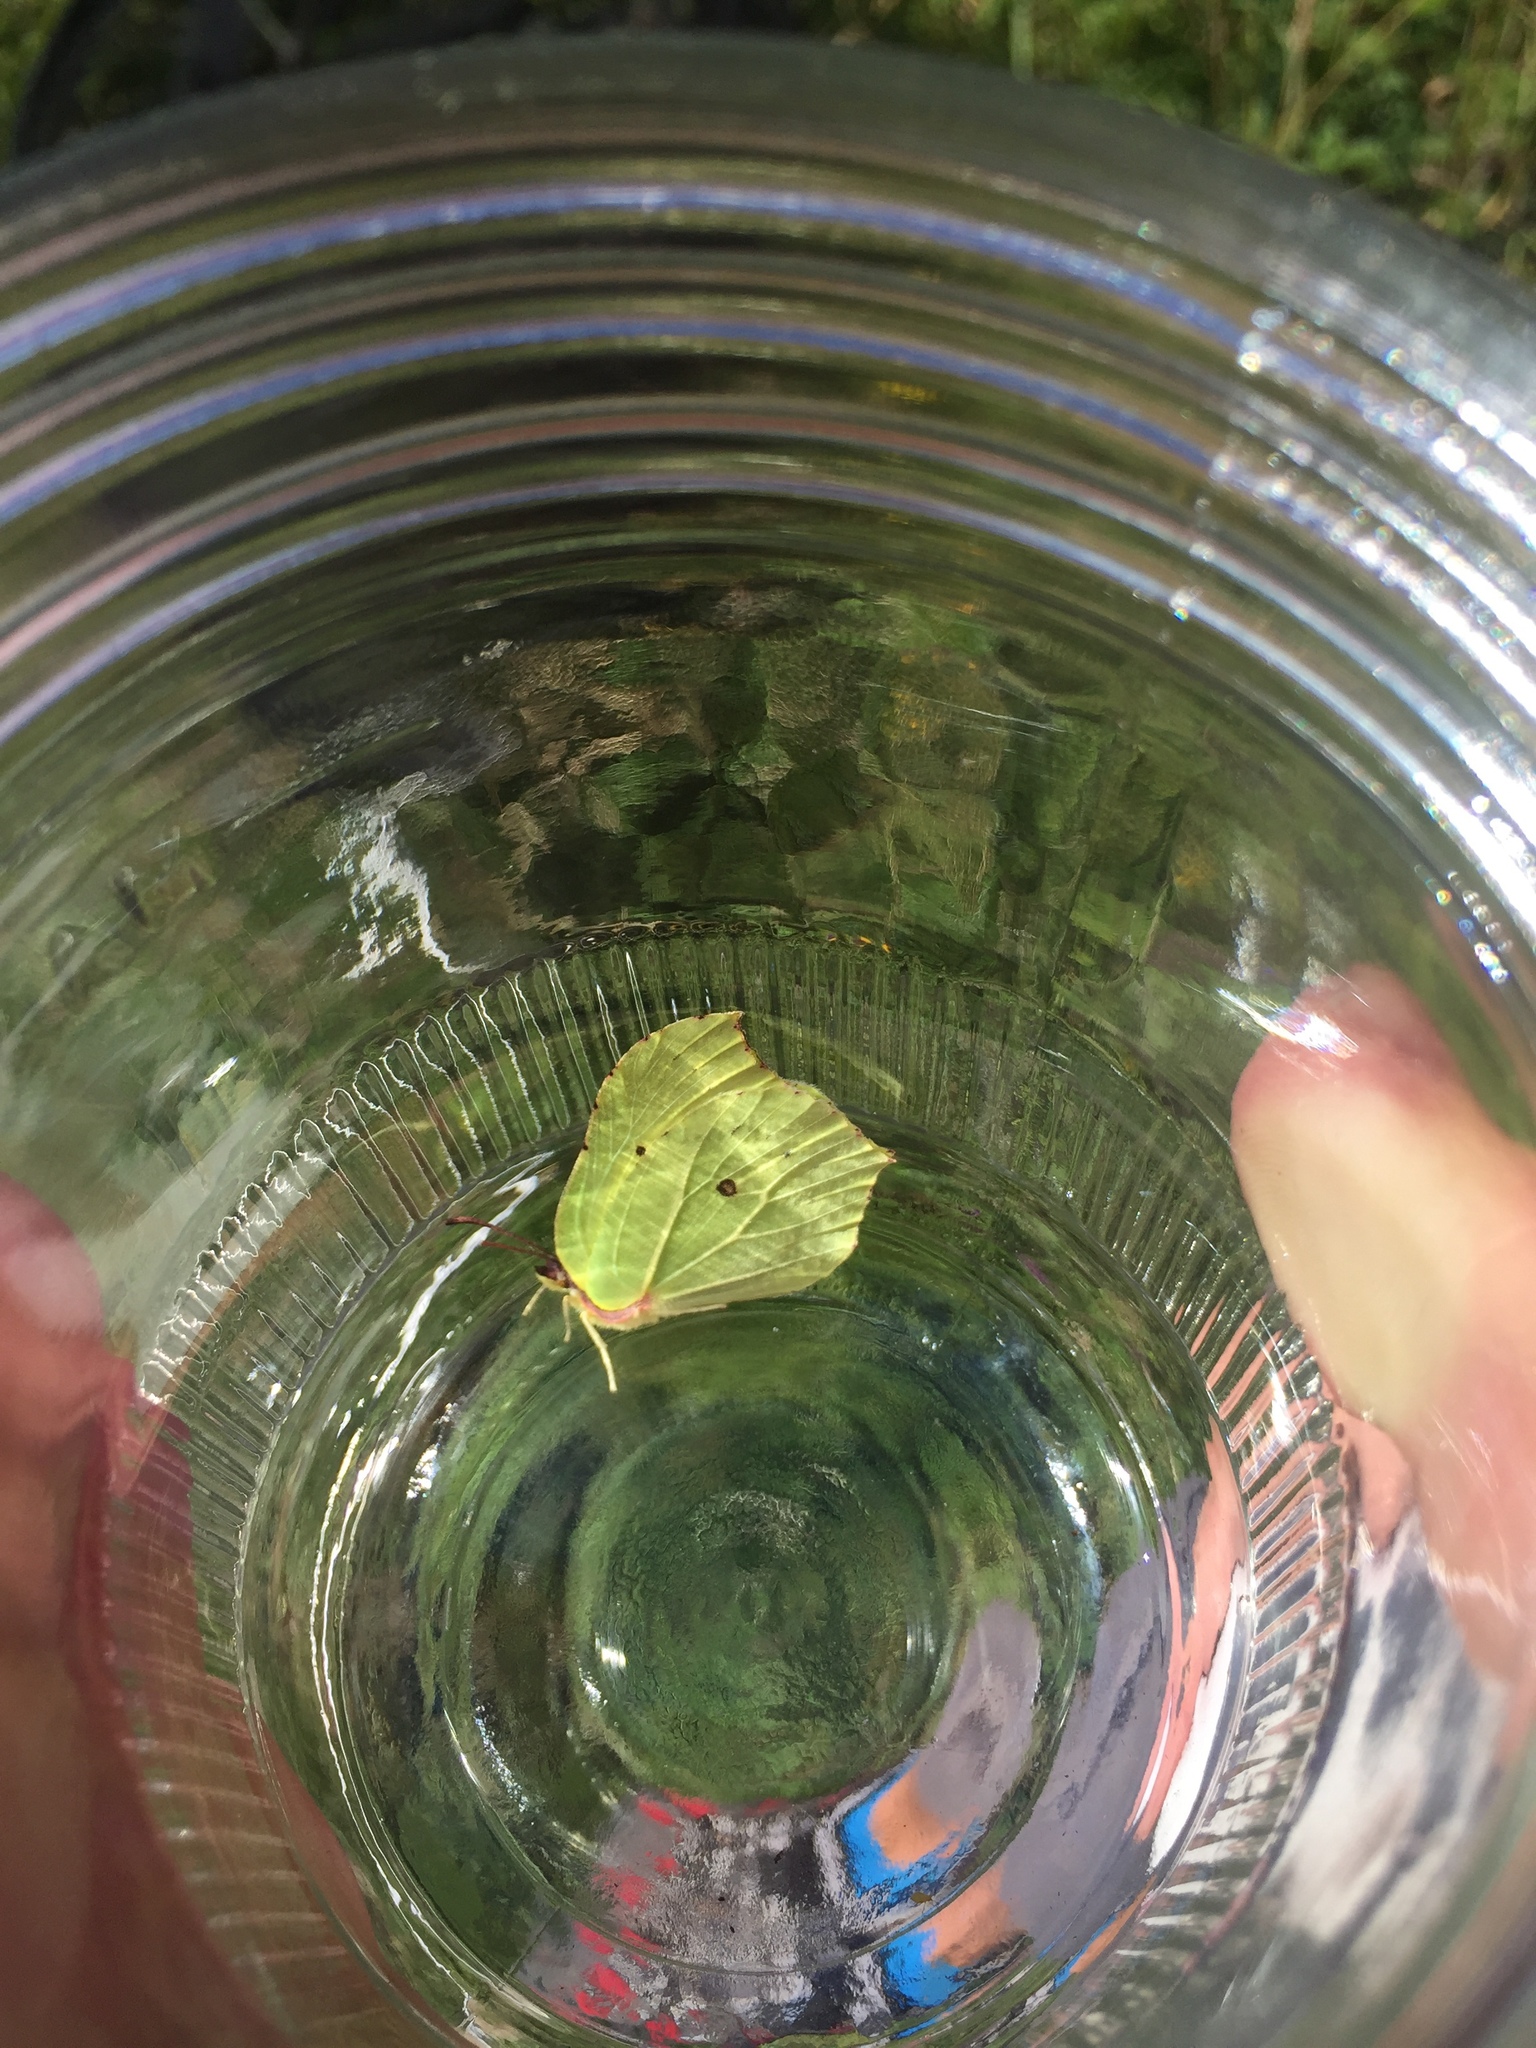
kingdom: Animalia
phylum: Arthropoda
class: Insecta
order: Lepidoptera
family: Pieridae
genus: Gonepteryx
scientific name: Gonepteryx rhamni
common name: Brimstone
